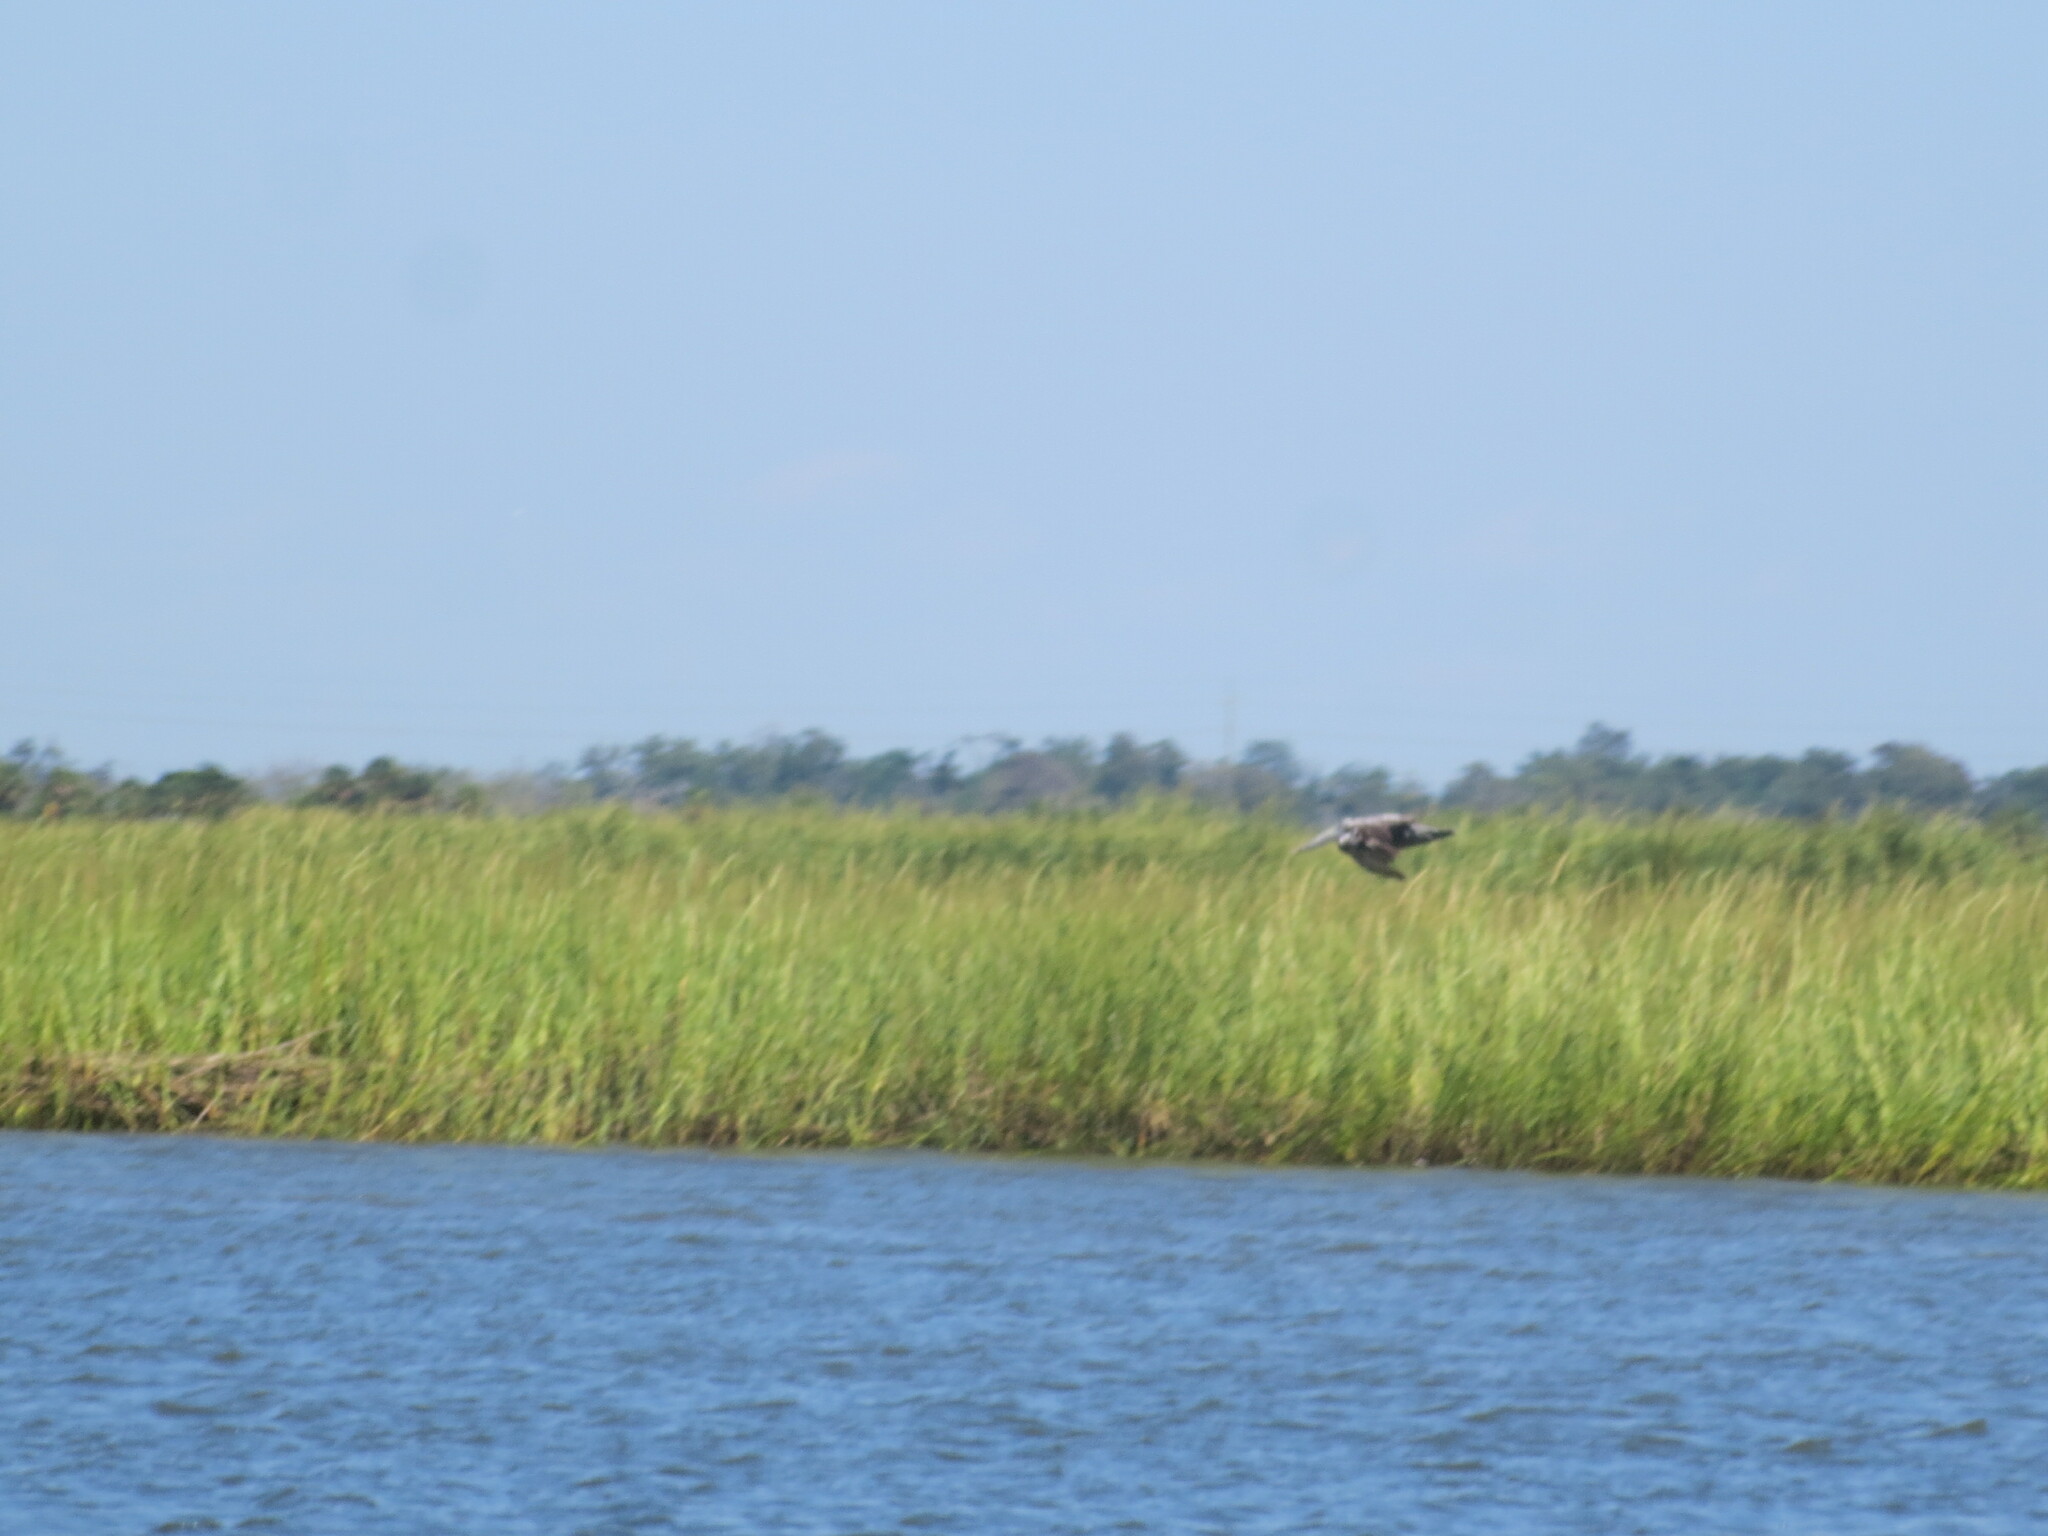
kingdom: Animalia
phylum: Chordata
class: Aves
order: Pelecaniformes
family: Pelecanidae
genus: Pelecanus
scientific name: Pelecanus occidentalis
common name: Brown pelican
